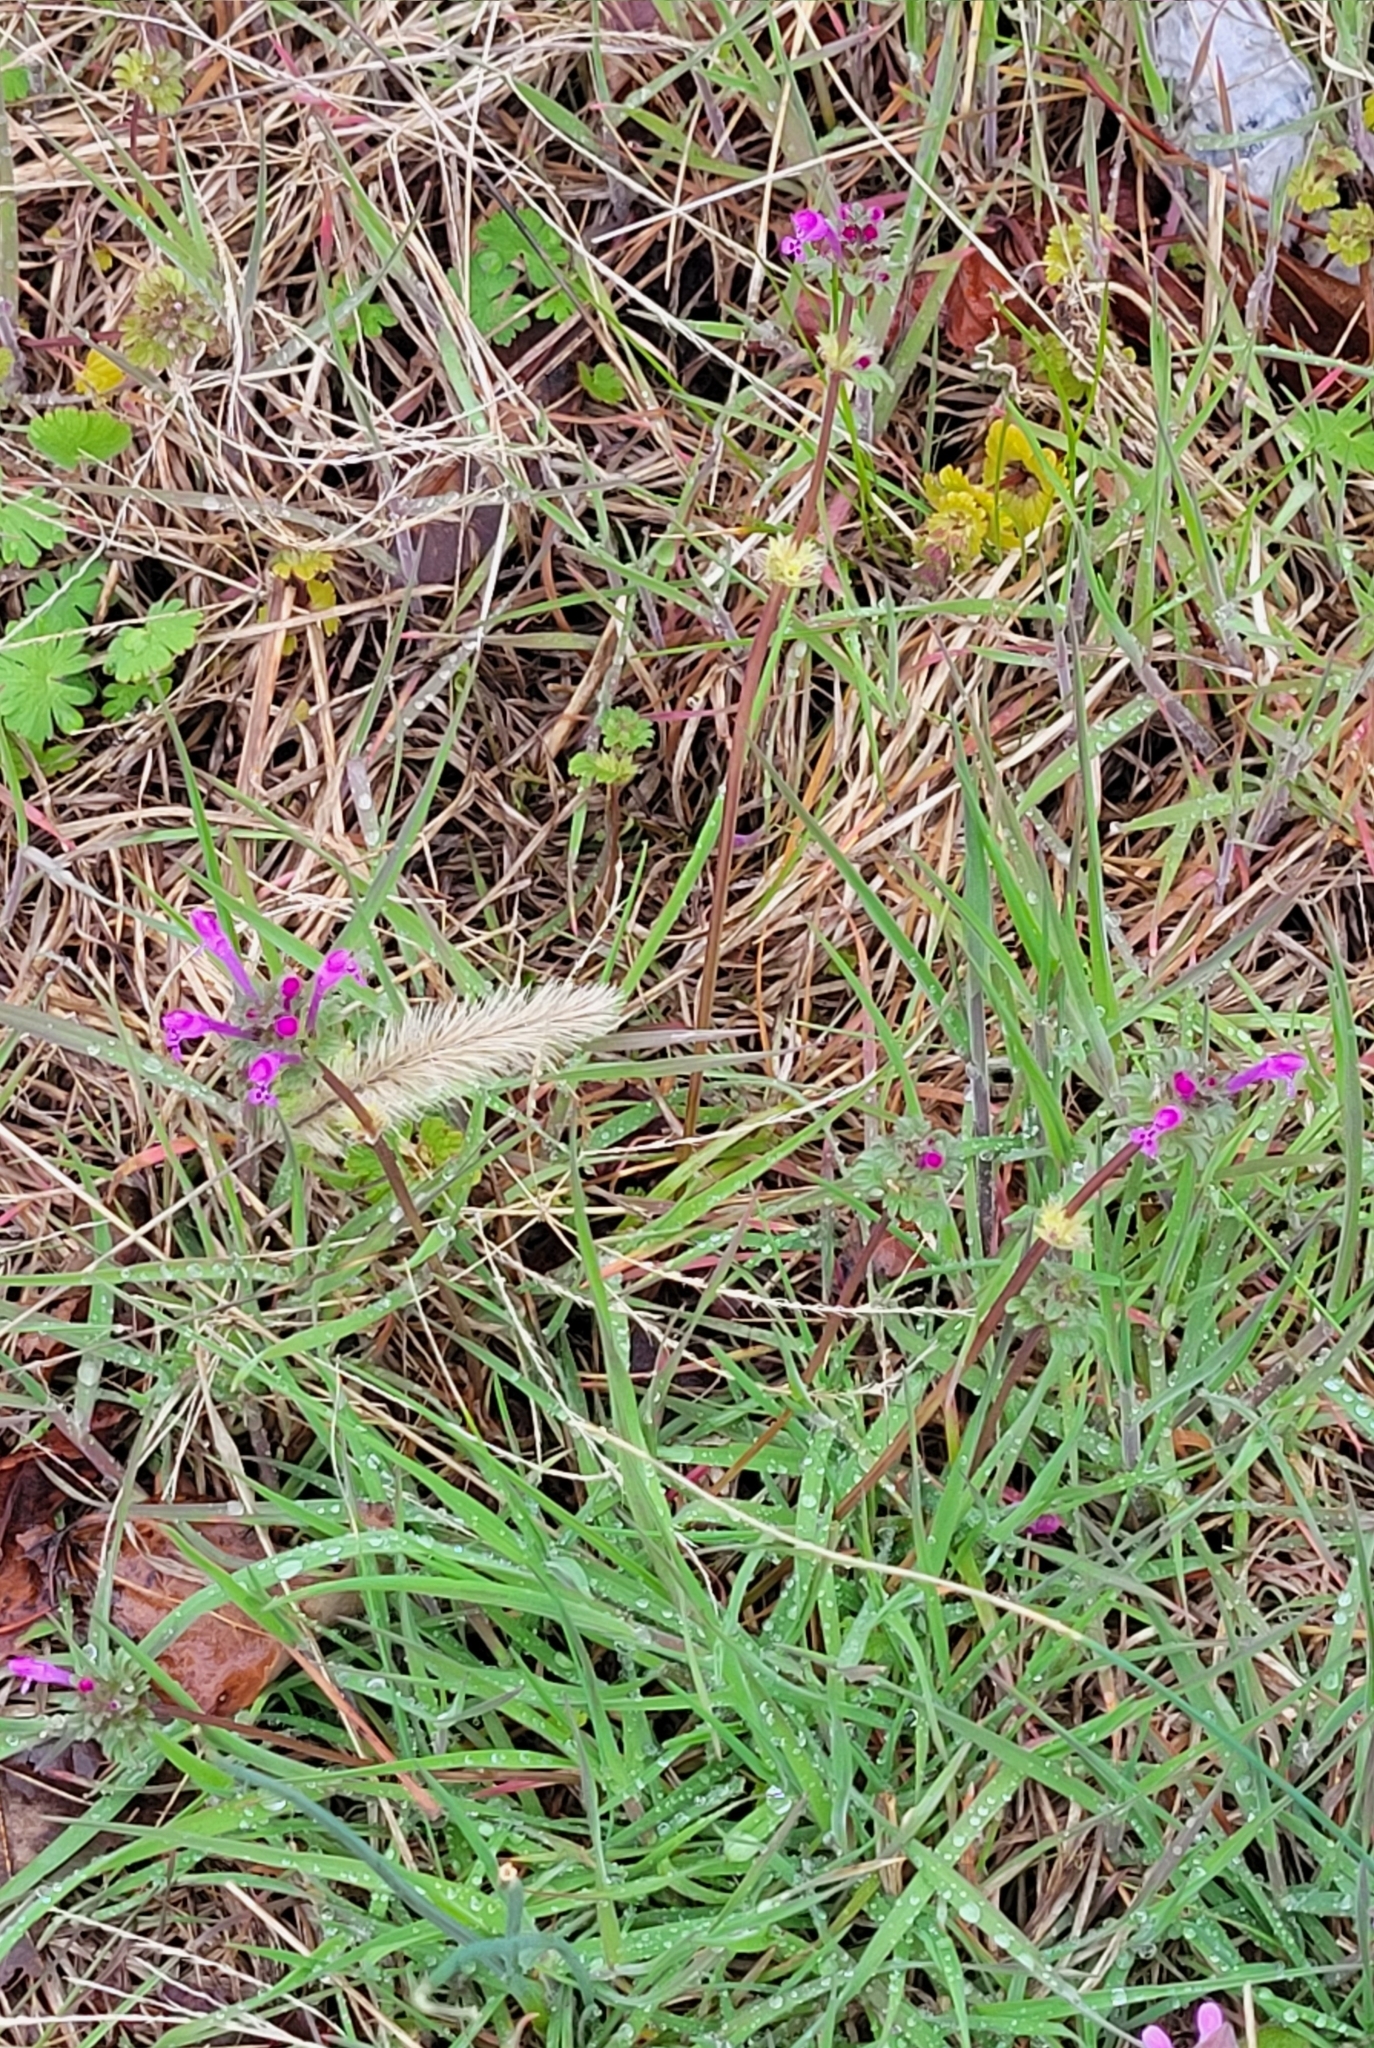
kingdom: Plantae
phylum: Tracheophyta
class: Magnoliopsida
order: Lamiales
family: Lamiaceae
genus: Lamium
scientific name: Lamium amplexicaule
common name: Henbit dead-nettle
